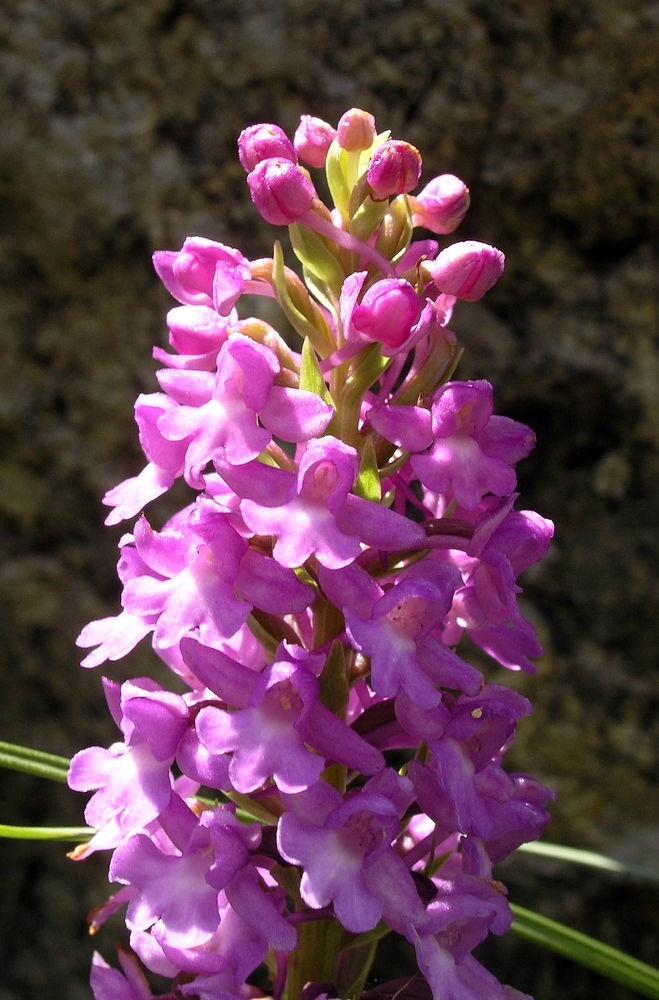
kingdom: Plantae
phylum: Tracheophyta
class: Liliopsida
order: Asparagales
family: Orchidaceae
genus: Gymnadenia
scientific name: Gymnadenia conopsea
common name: Fragrant orchid
